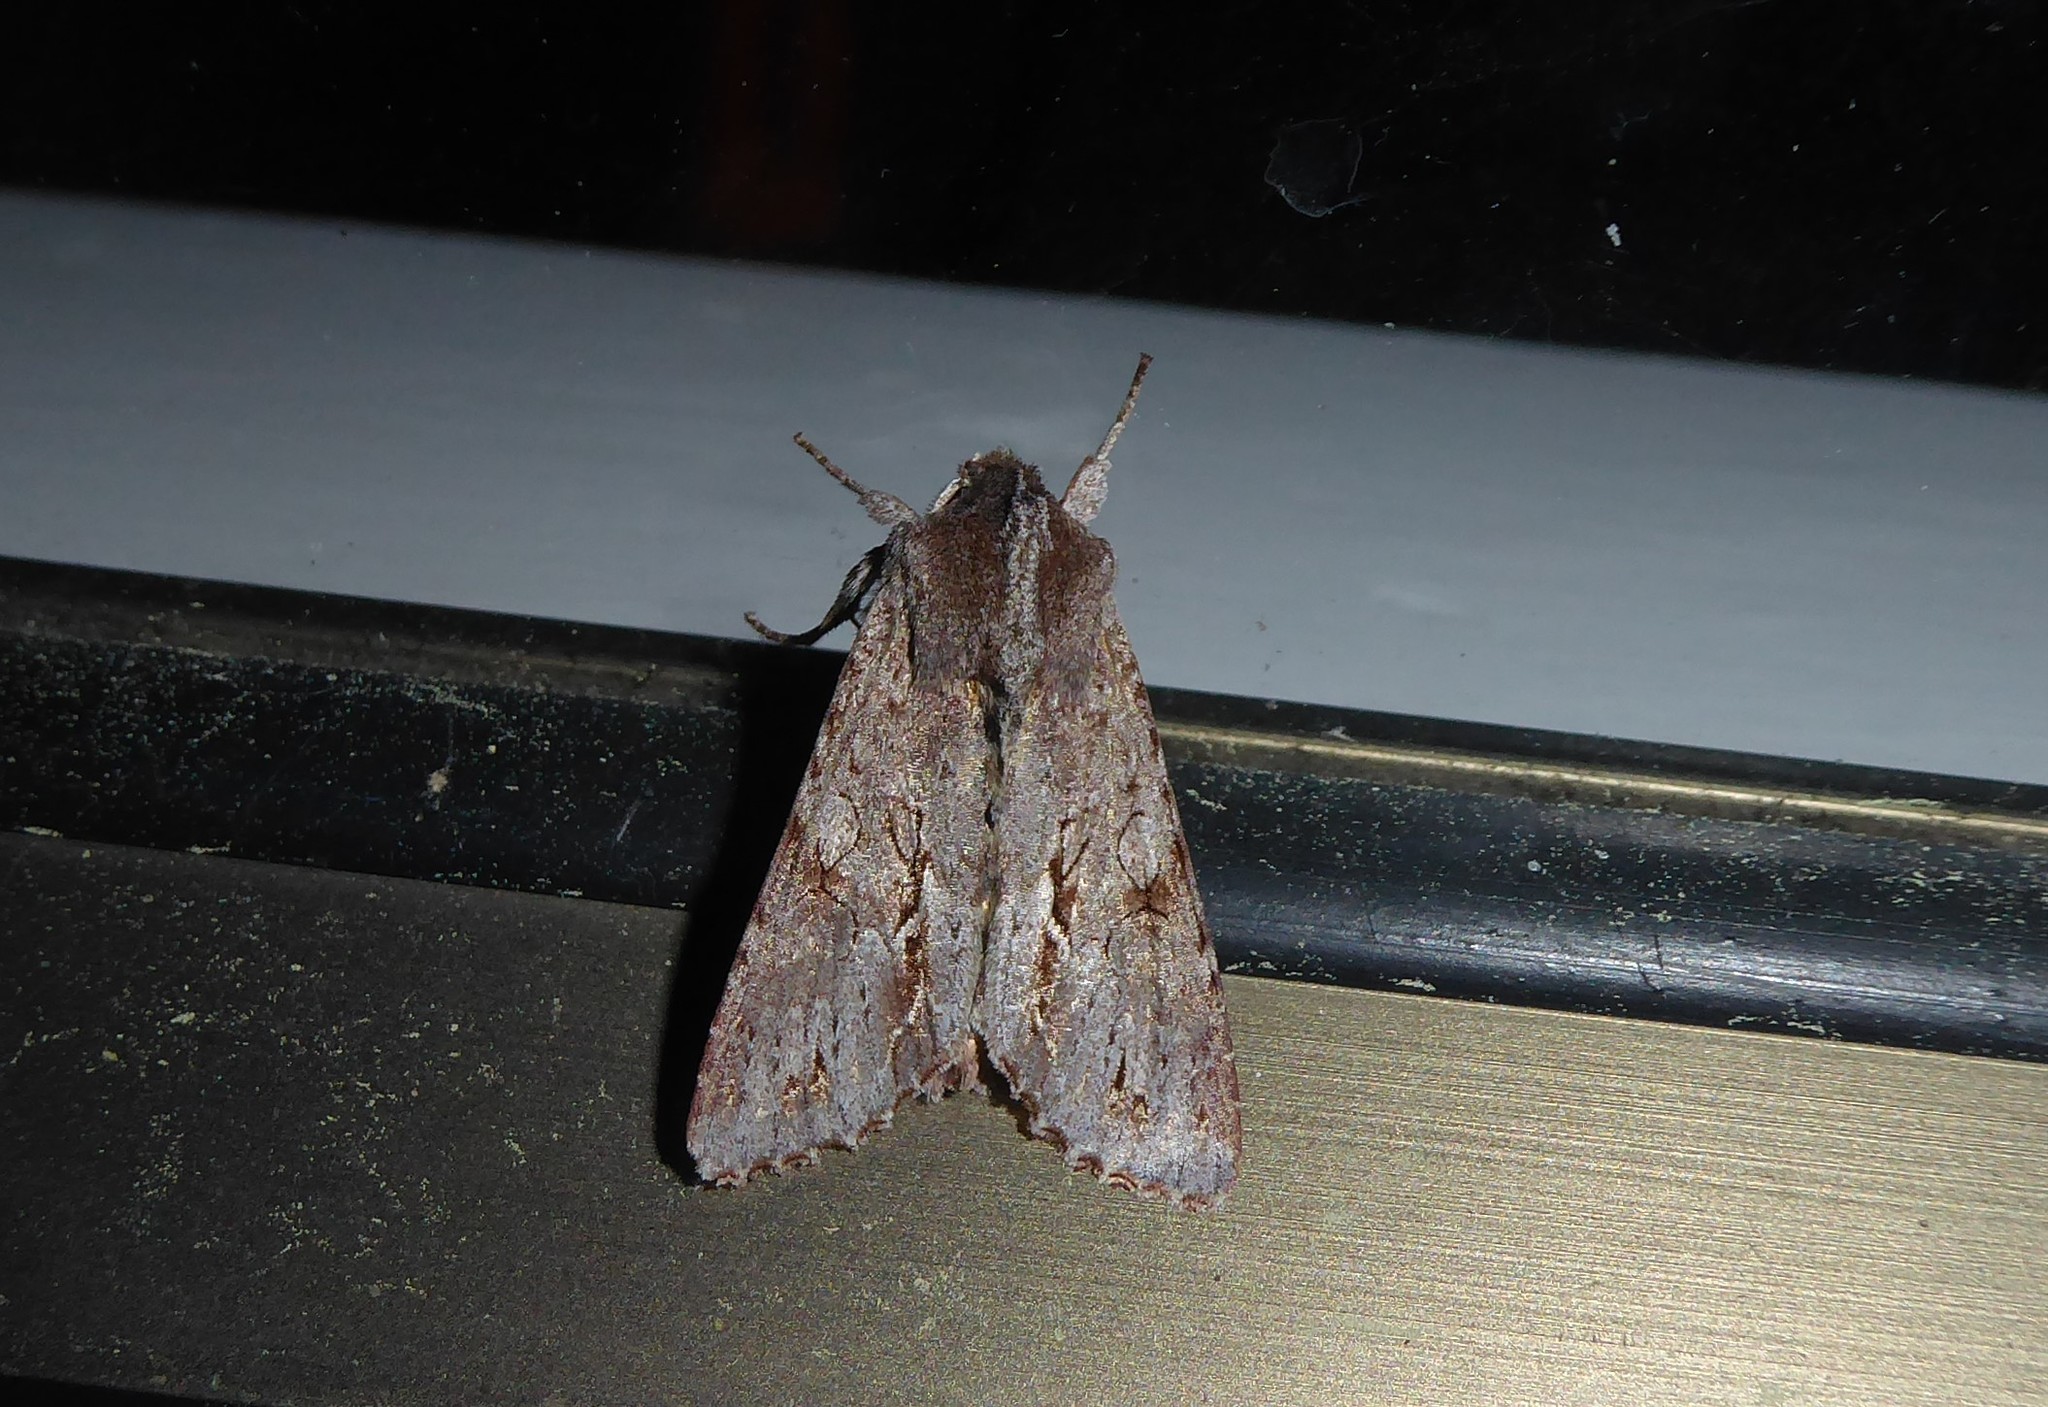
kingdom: Animalia
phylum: Arthropoda
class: Insecta
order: Lepidoptera
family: Noctuidae
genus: Ichneutica
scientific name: Ichneutica
